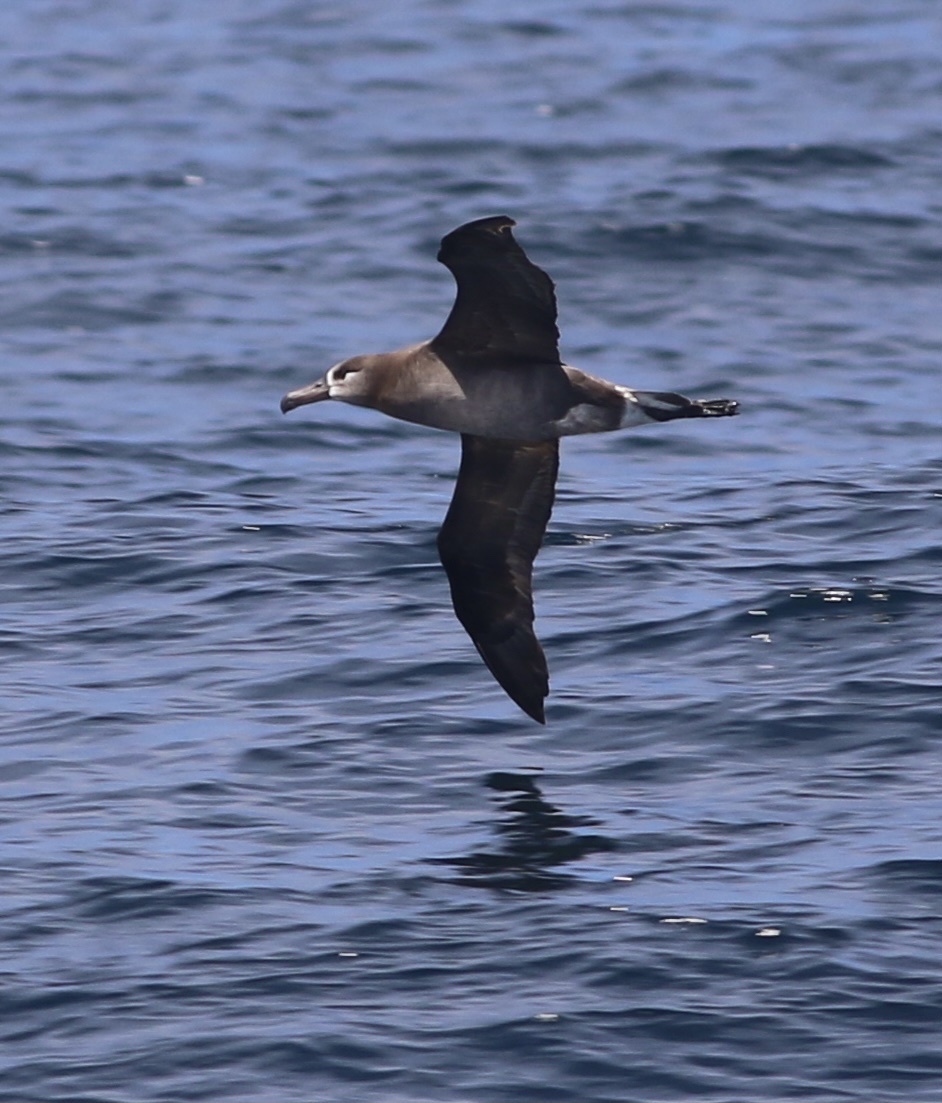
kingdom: Animalia
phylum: Chordata
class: Aves
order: Procellariiformes
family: Diomedeidae
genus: Phoebastria
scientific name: Phoebastria nigripes
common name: Black-footed albatross
